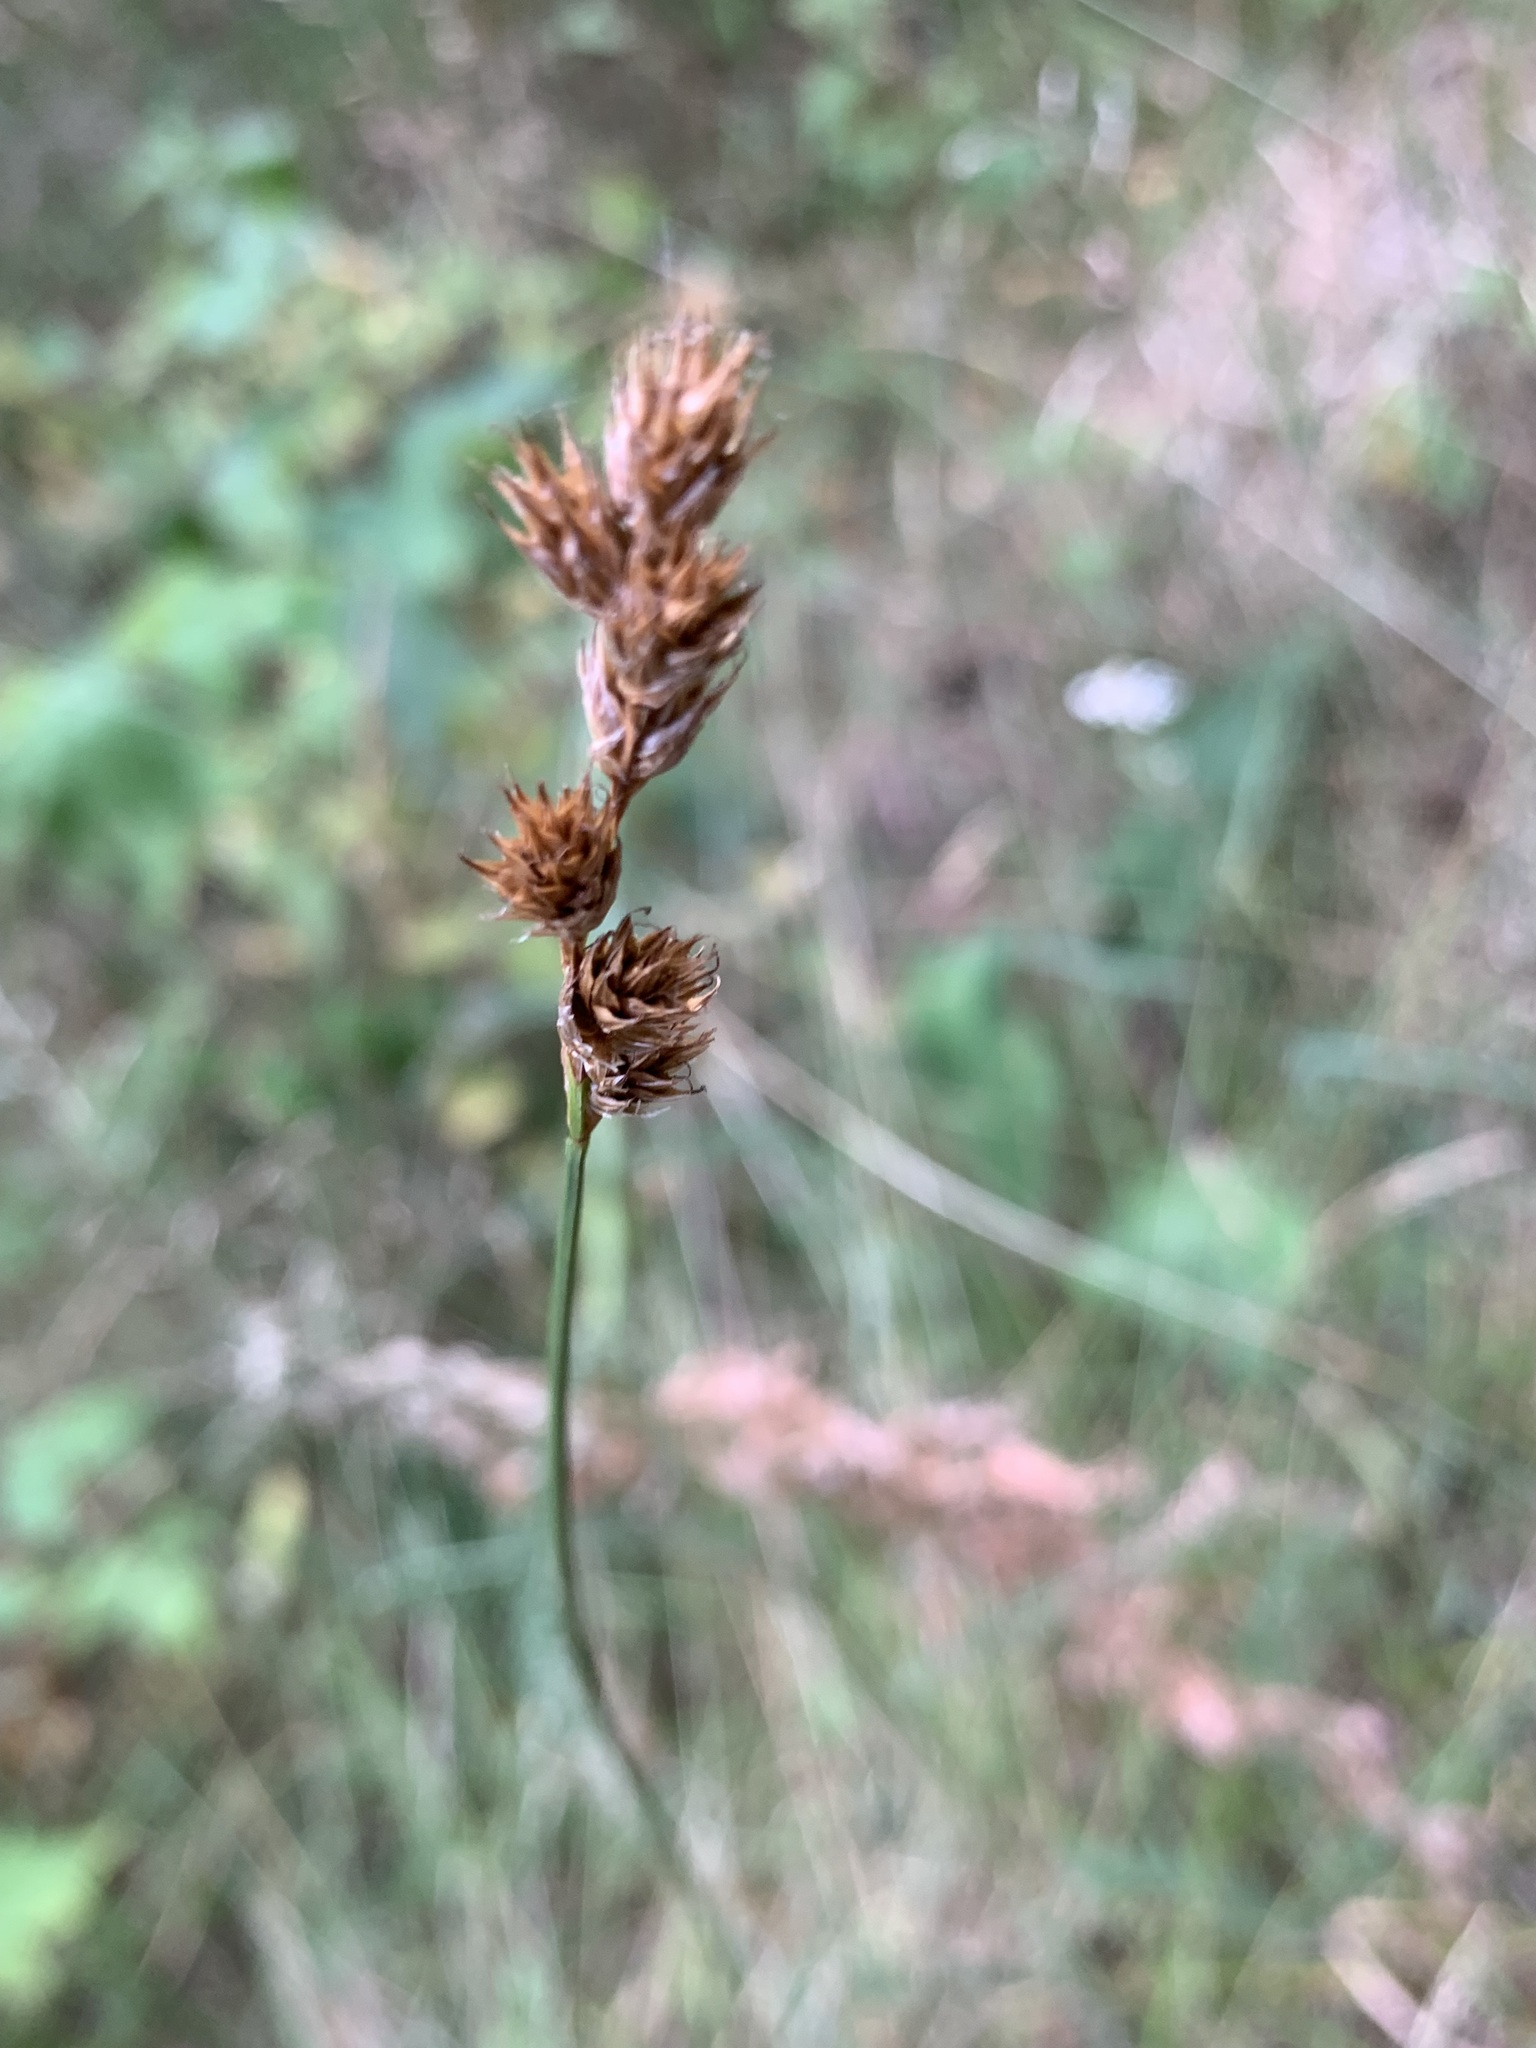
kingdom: Plantae
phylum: Tracheophyta
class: Liliopsida
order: Poales
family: Cyperaceae
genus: Carex
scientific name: Carex leporina
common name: Oval sedge
